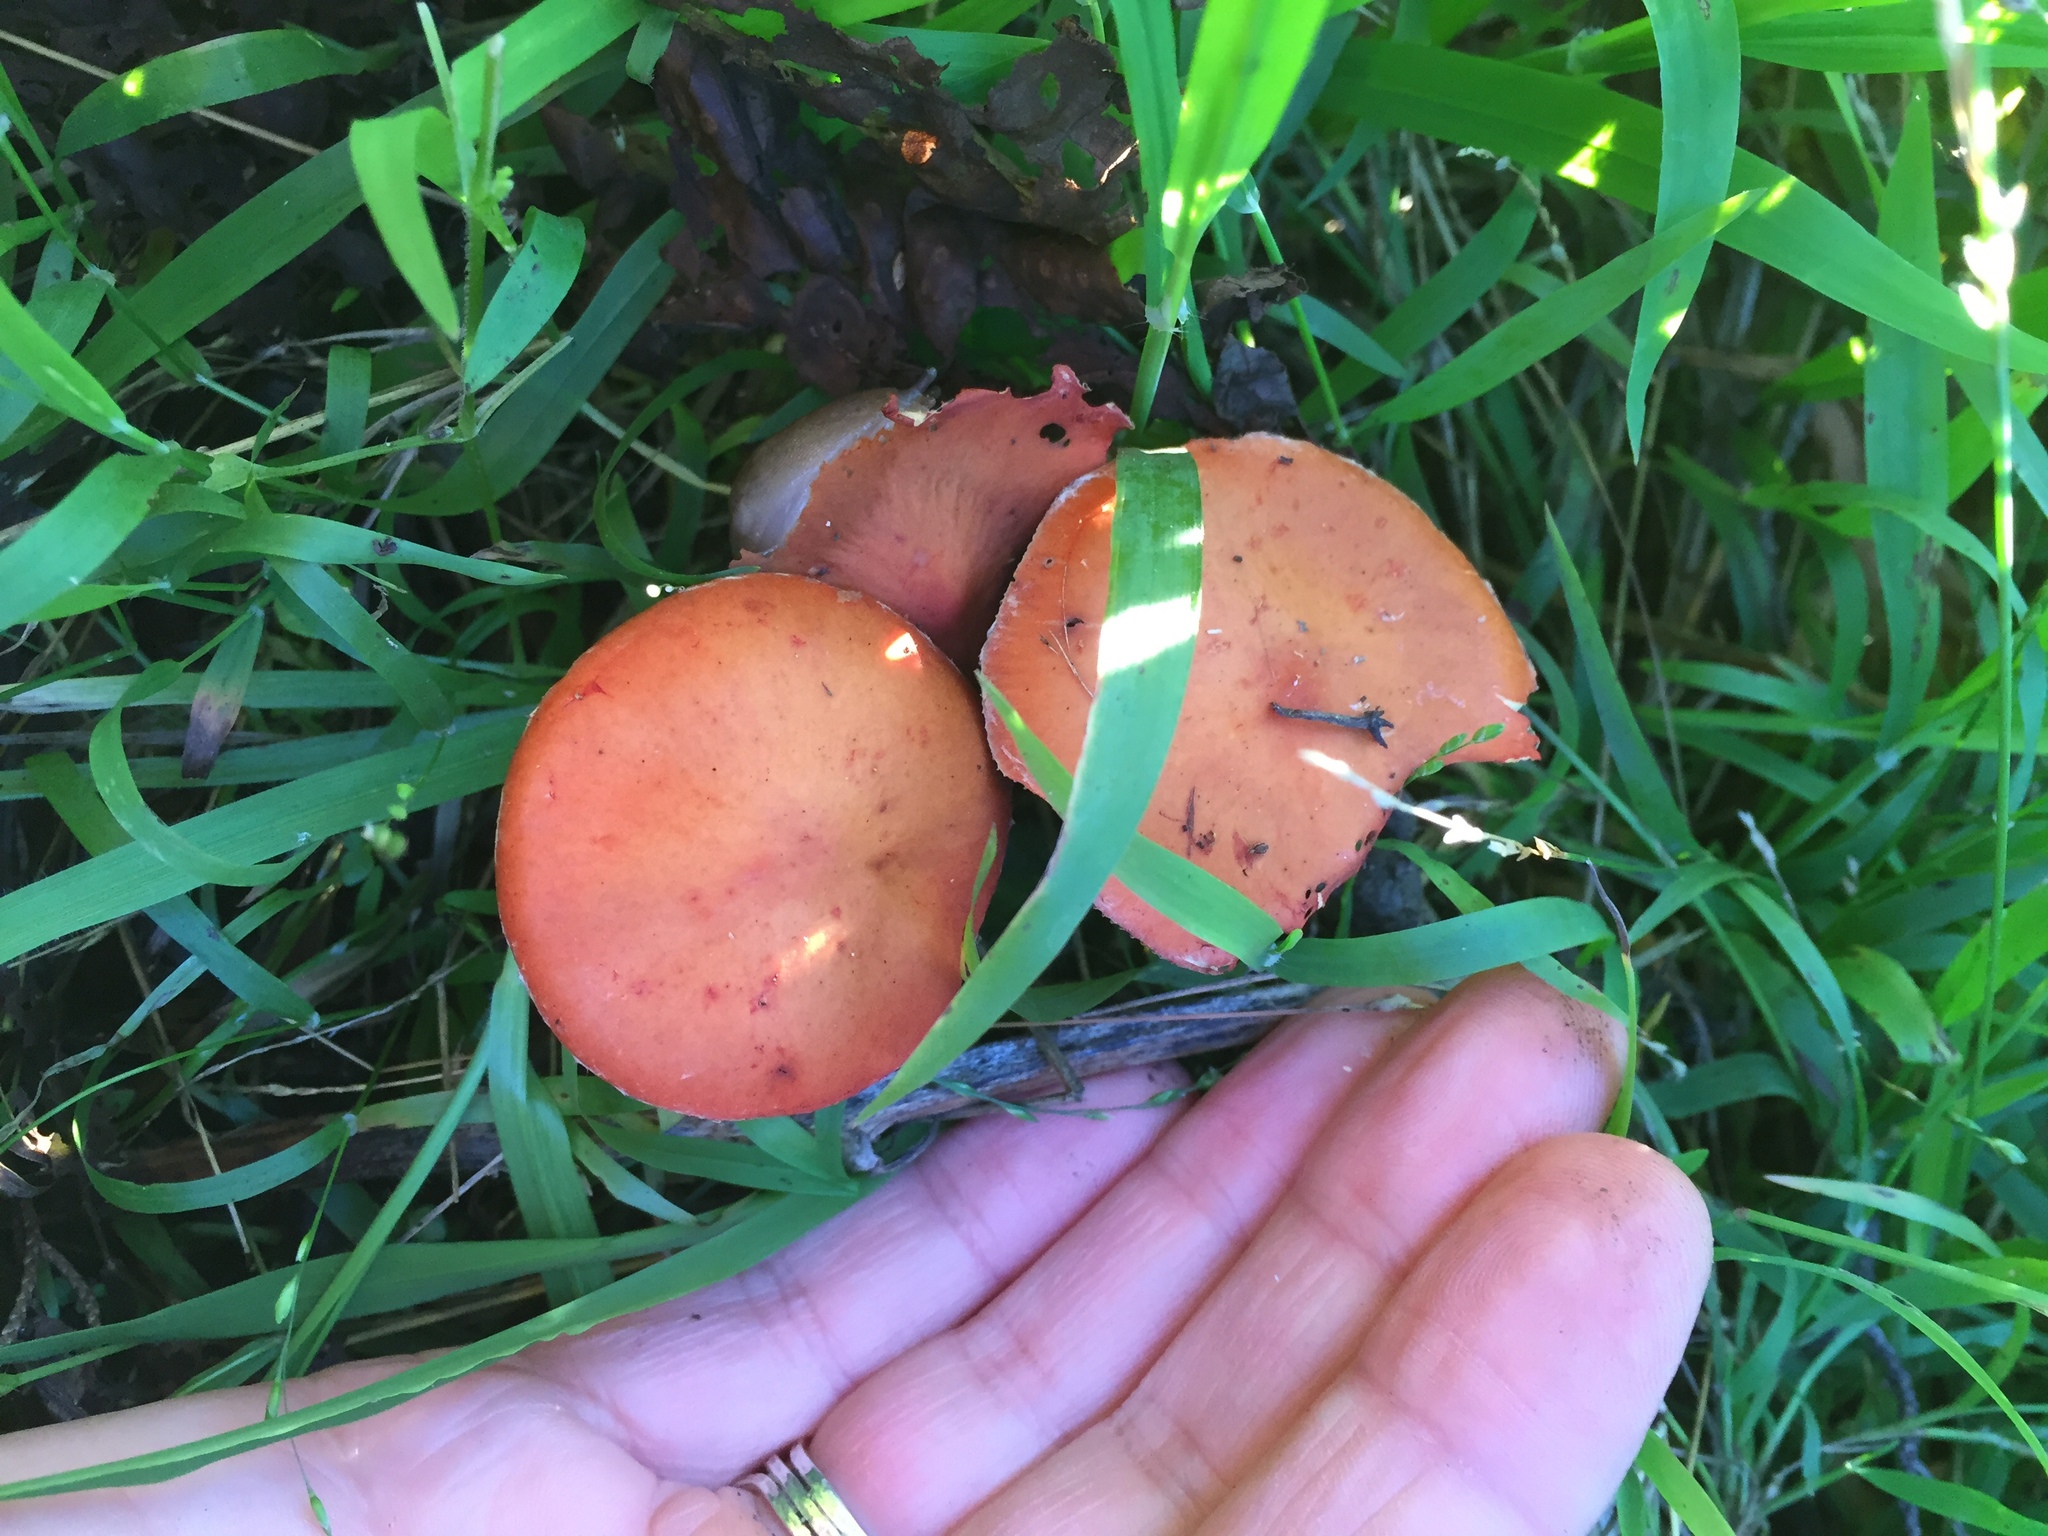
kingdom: Fungi
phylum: Basidiomycota
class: Agaricomycetes
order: Agaricales
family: Strophariaceae
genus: Leratiomyces
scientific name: Leratiomyces ceres
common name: Redlead roundhead
